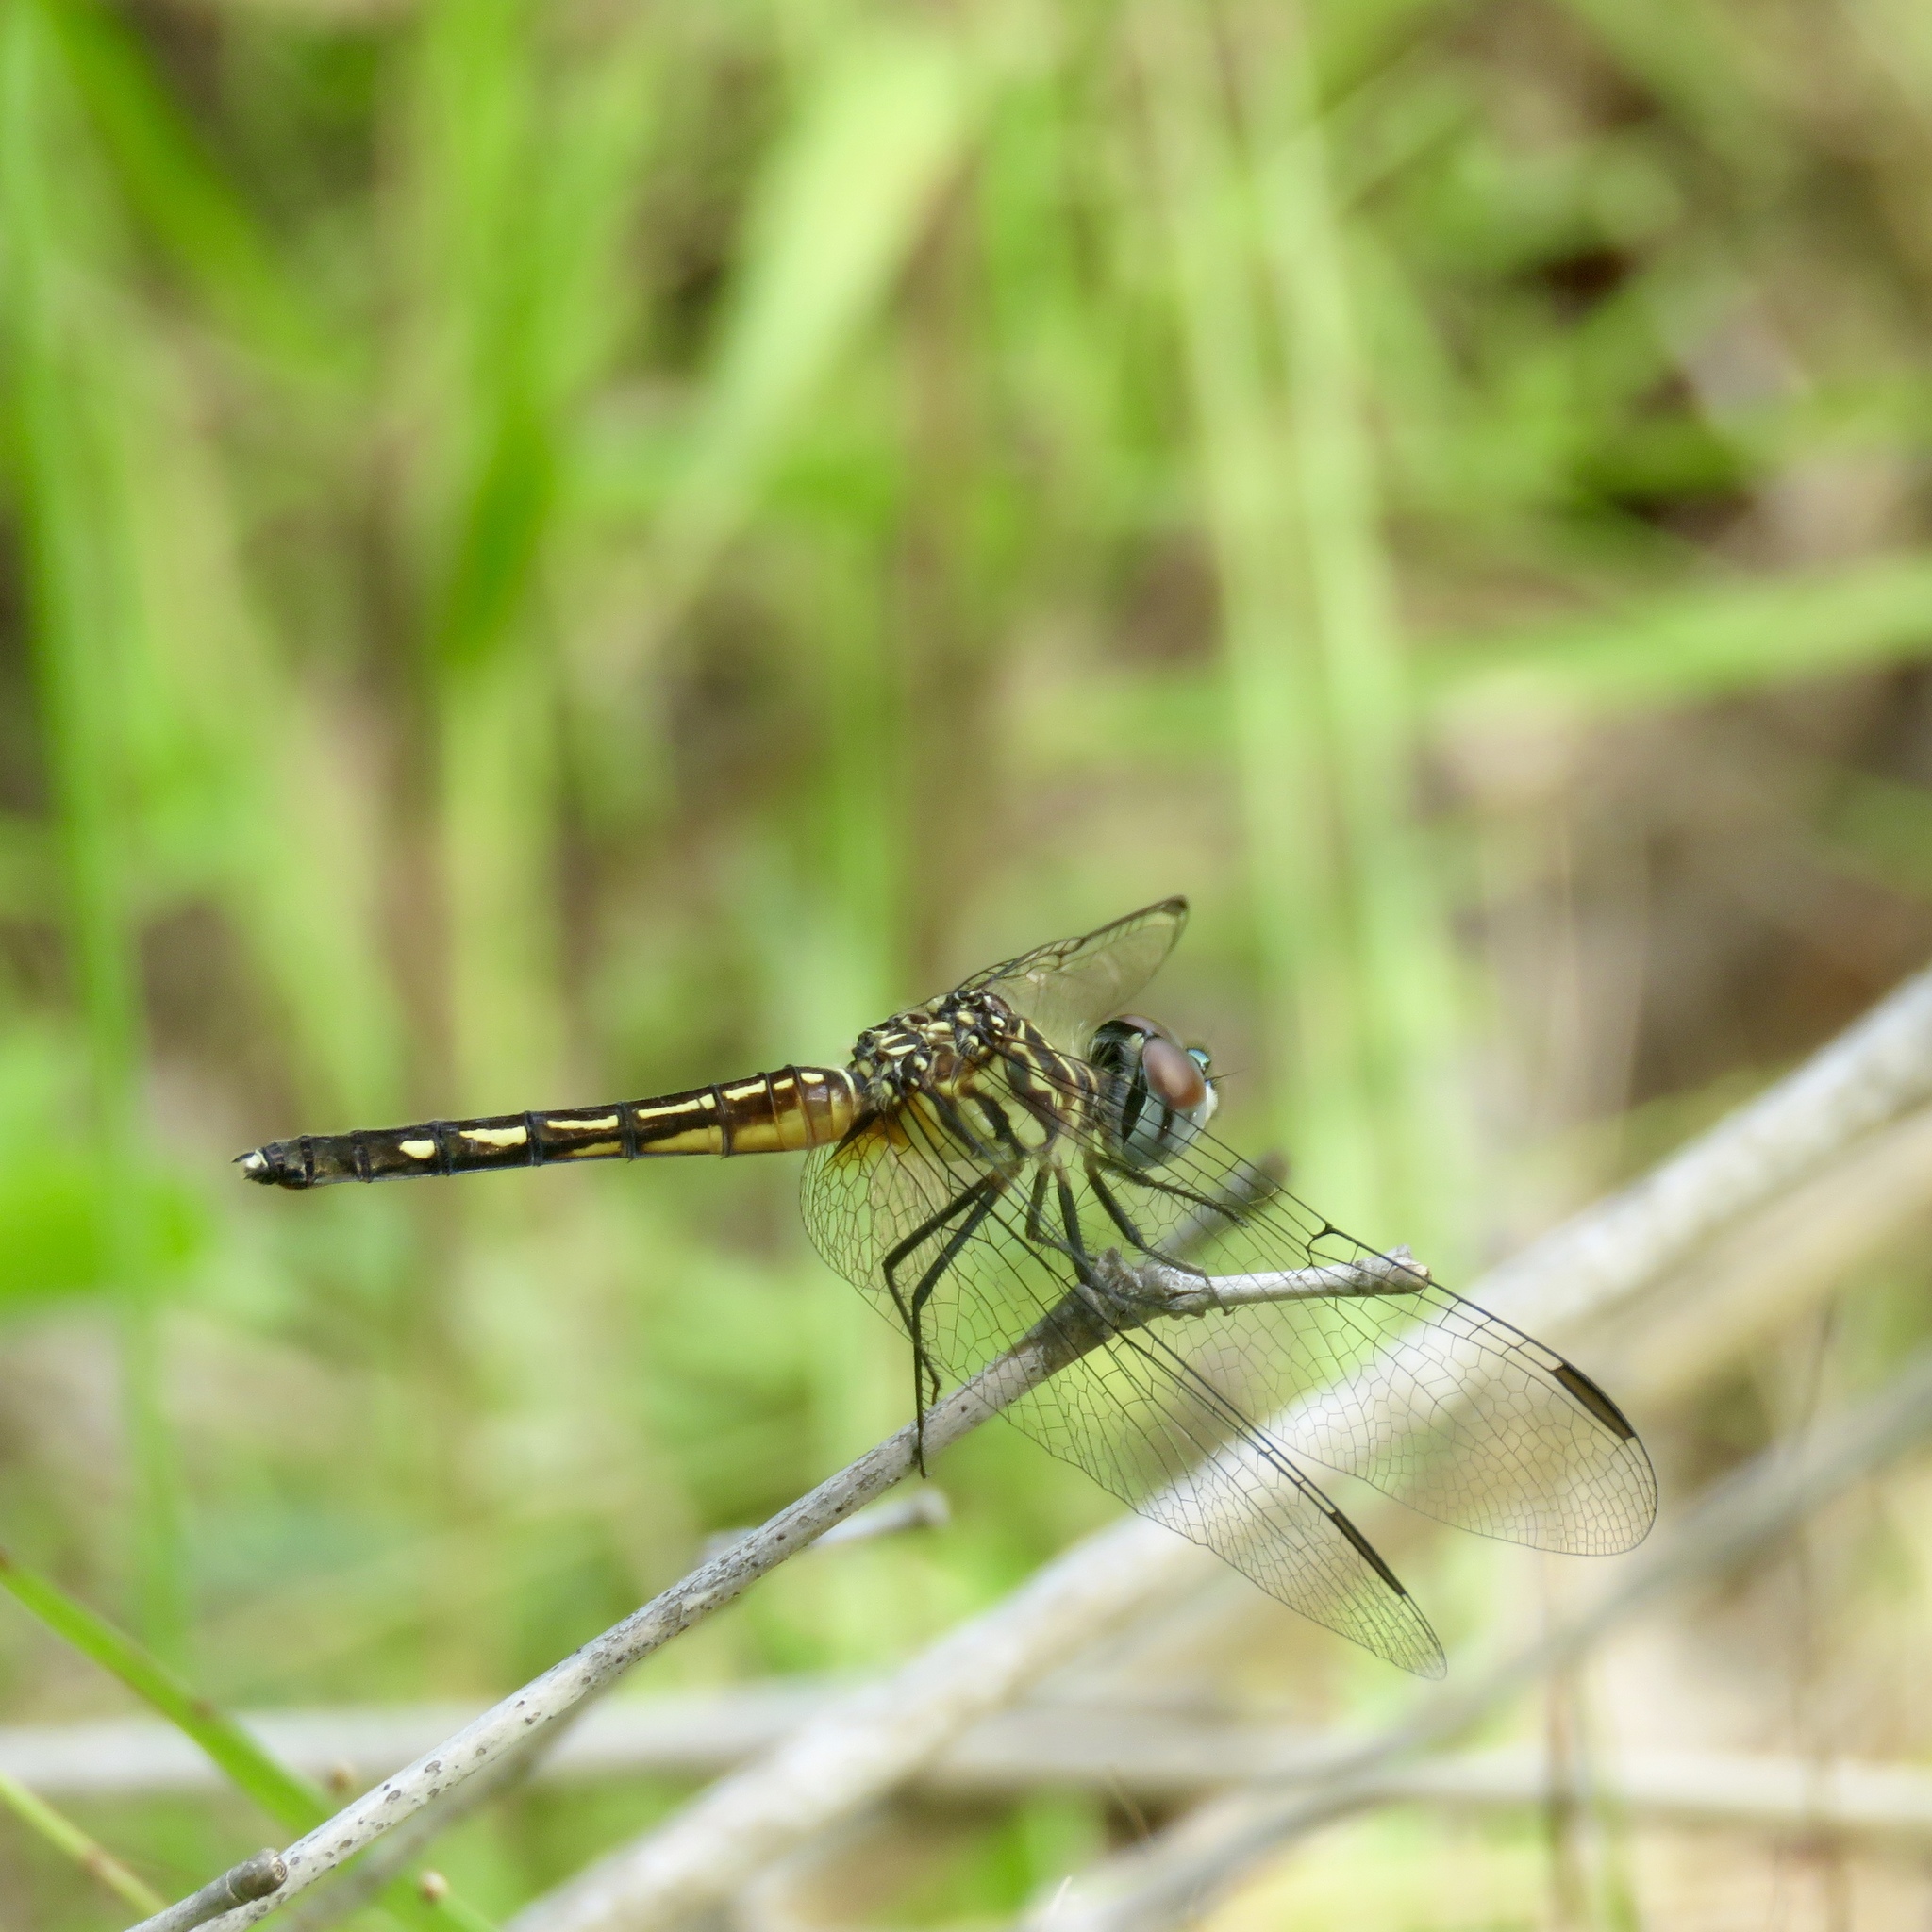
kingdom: Animalia
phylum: Arthropoda
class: Insecta
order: Odonata
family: Libellulidae
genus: Pachydiplax
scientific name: Pachydiplax longipennis
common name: Blue dasher
